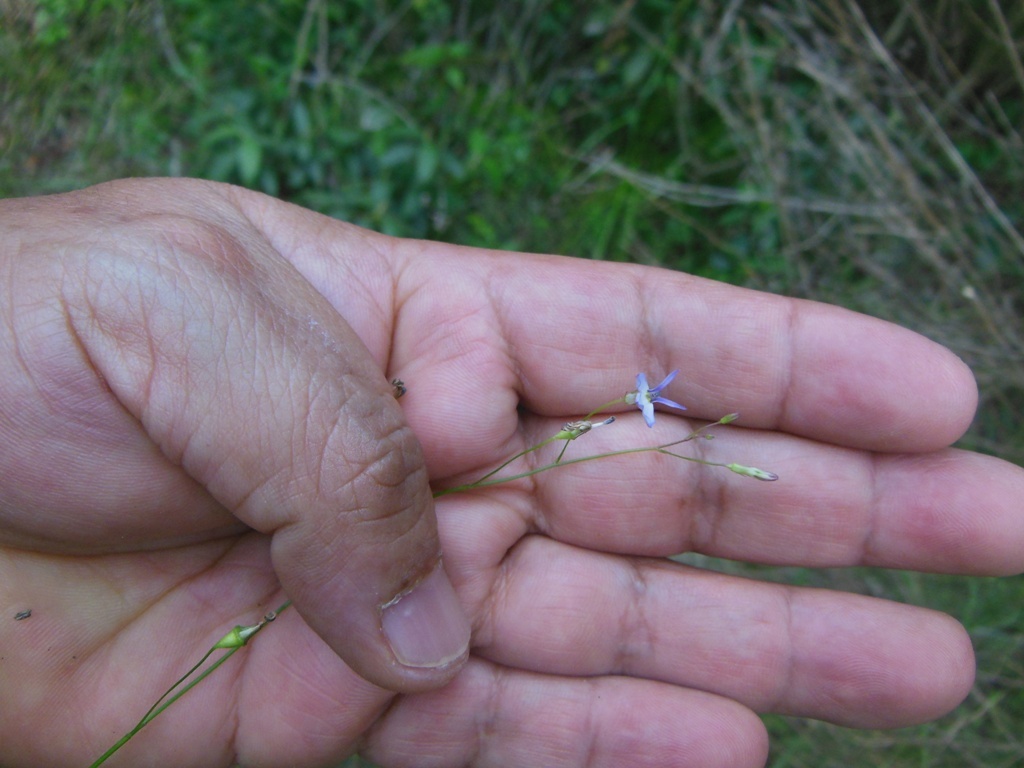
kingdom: Plantae
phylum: Tracheophyta
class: Magnoliopsida
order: Asterales
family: Campanulaceae
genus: Lobelia
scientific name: Lobelia longicaulis
